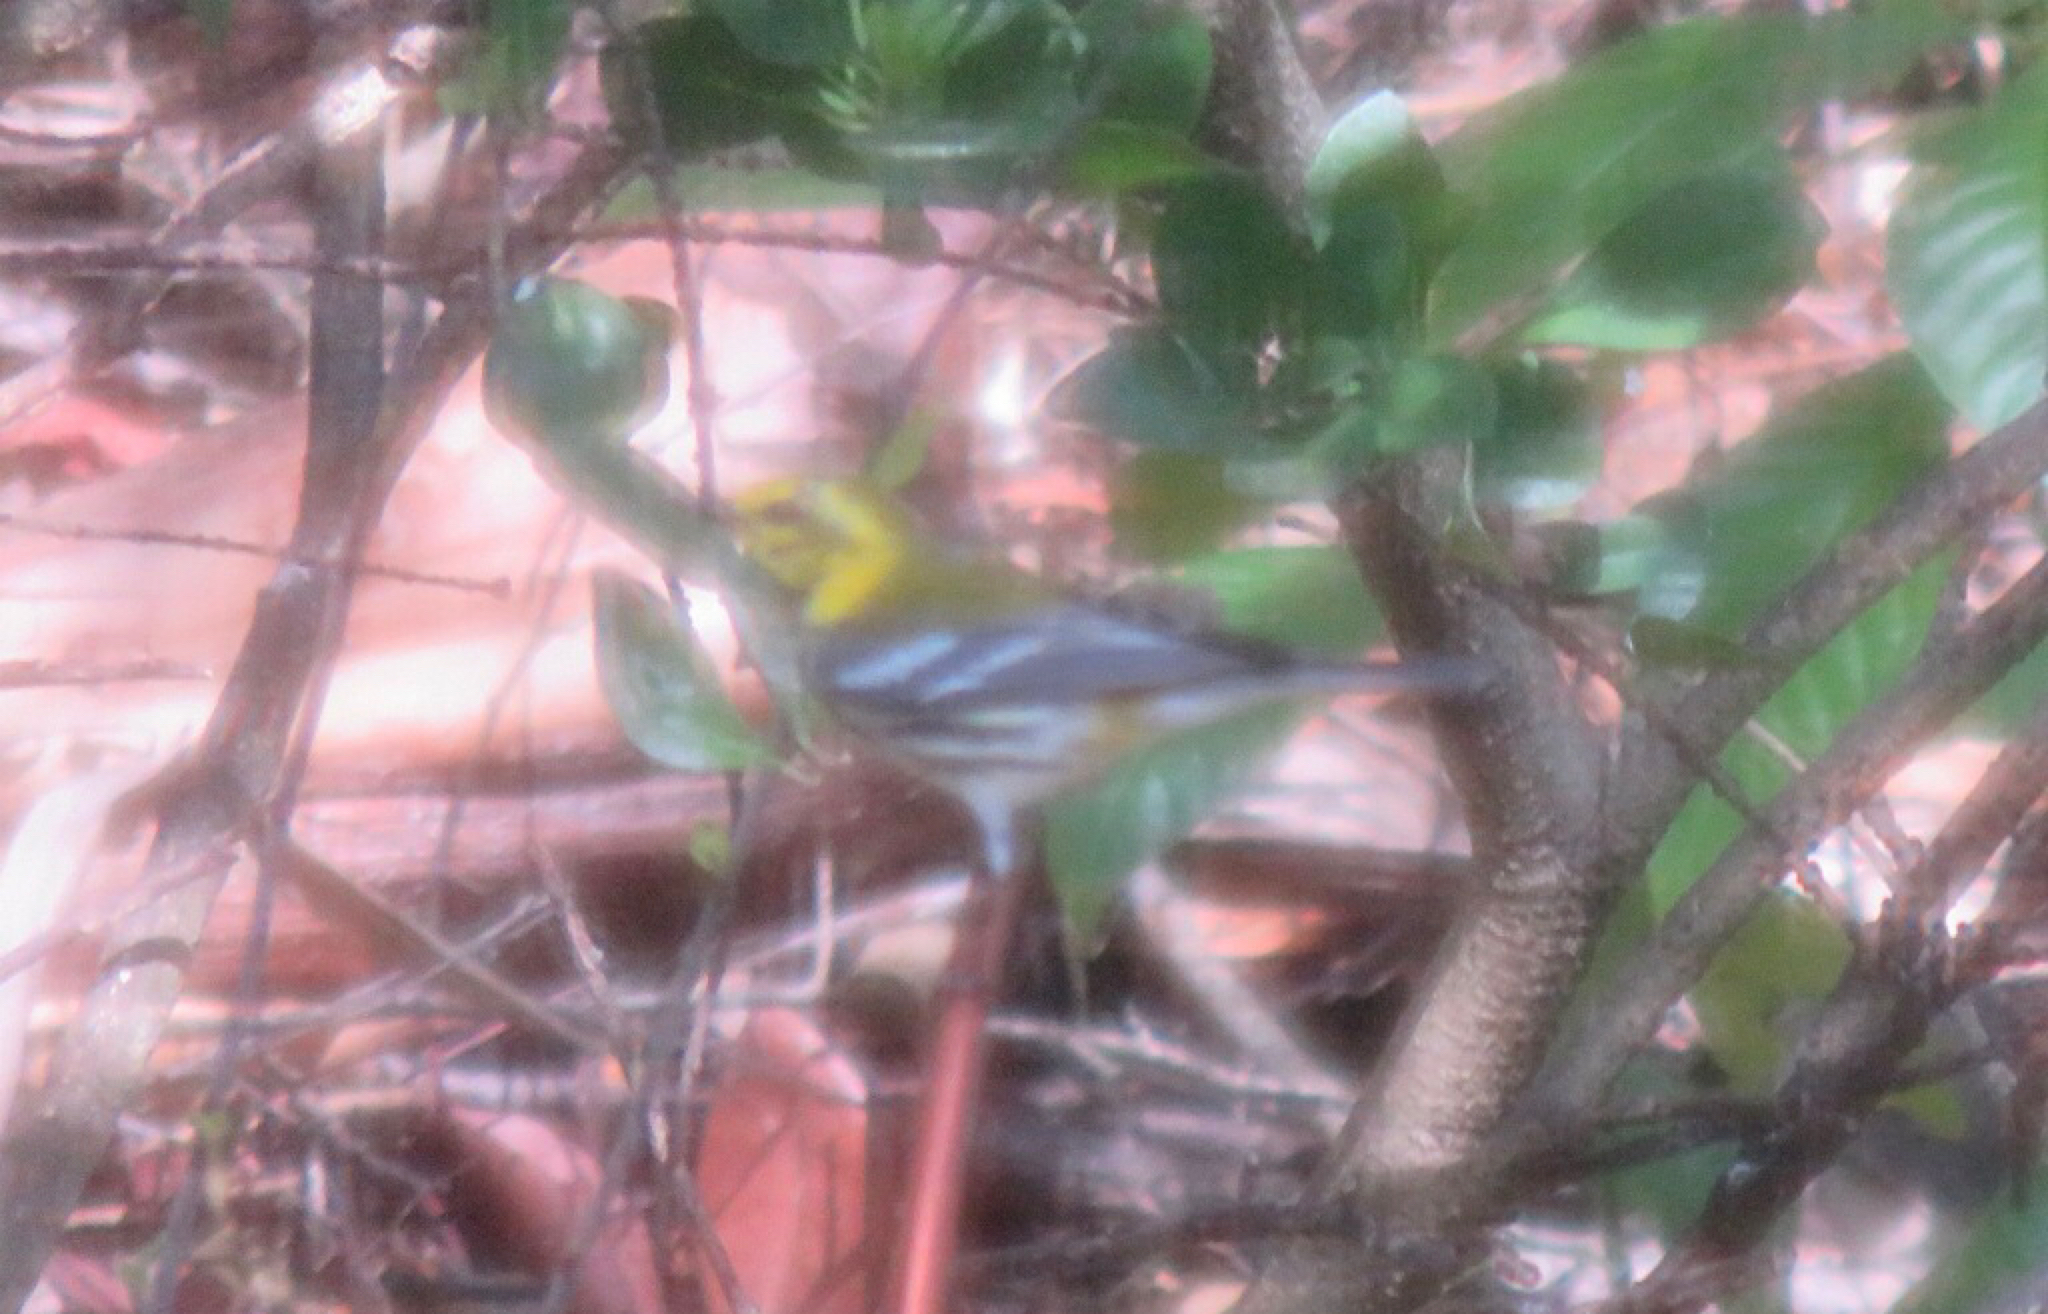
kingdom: Animalia
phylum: Chordata
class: Aves
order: Passeriformes
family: Parulidae
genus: Setophaga
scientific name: Setophaga virens
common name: Black-throated green warbler
